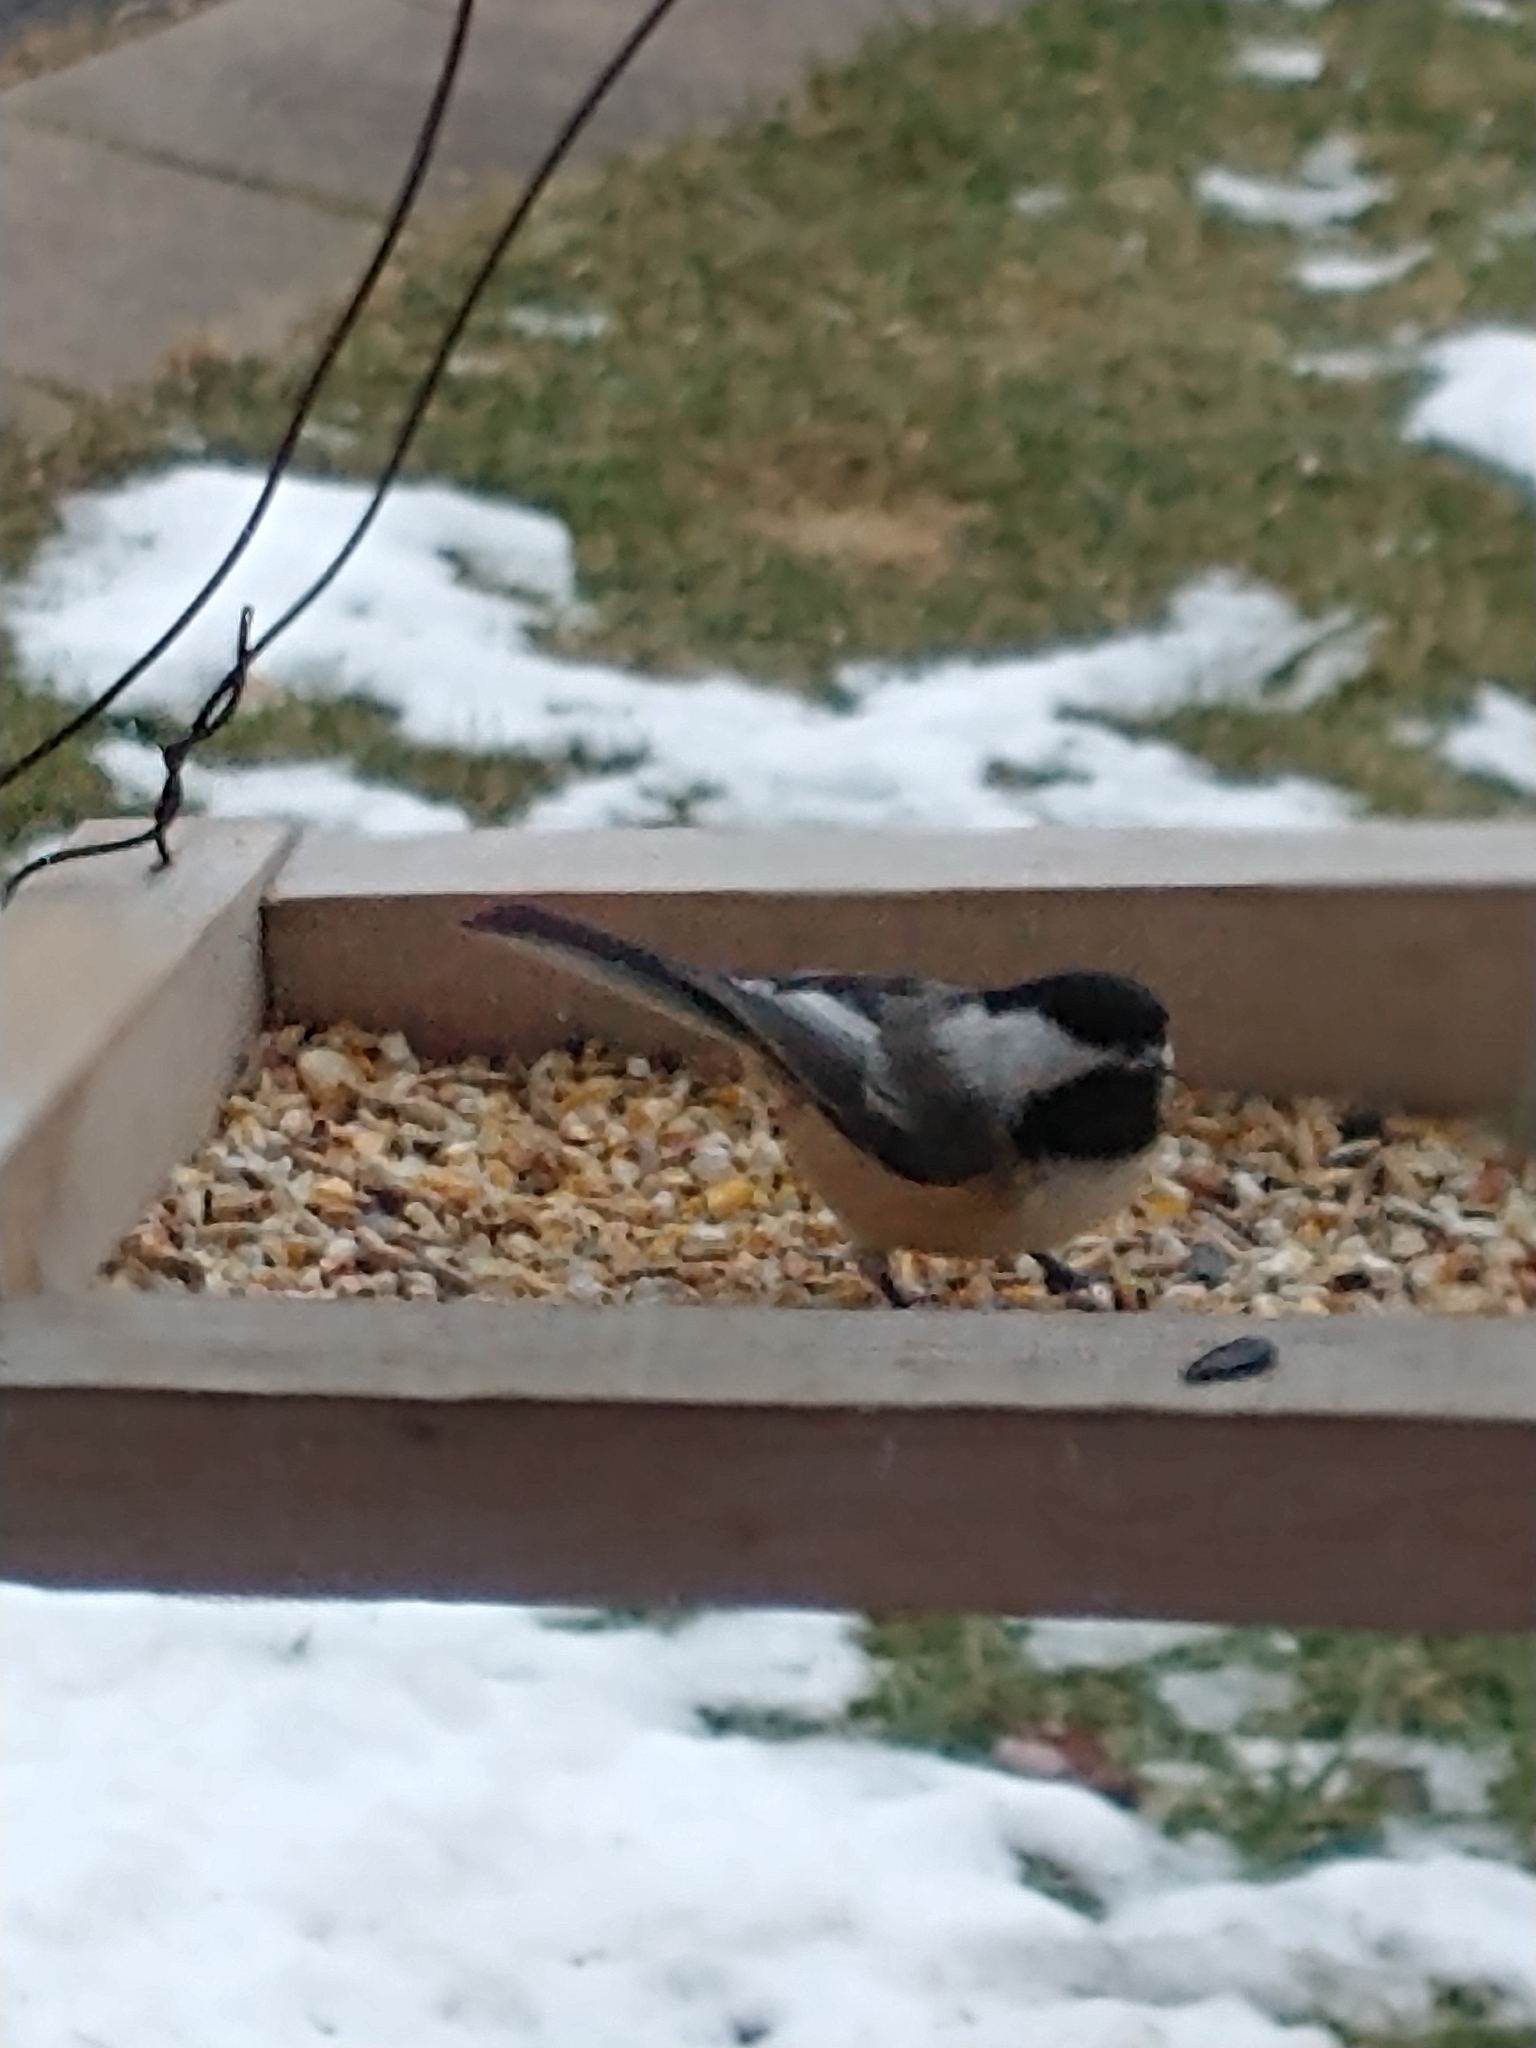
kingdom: Animalia
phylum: Chordata
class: Aves
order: Passeriformes
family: Paridae
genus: Poecile
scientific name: Poecile atricapillus
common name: Black-capped chickadee
